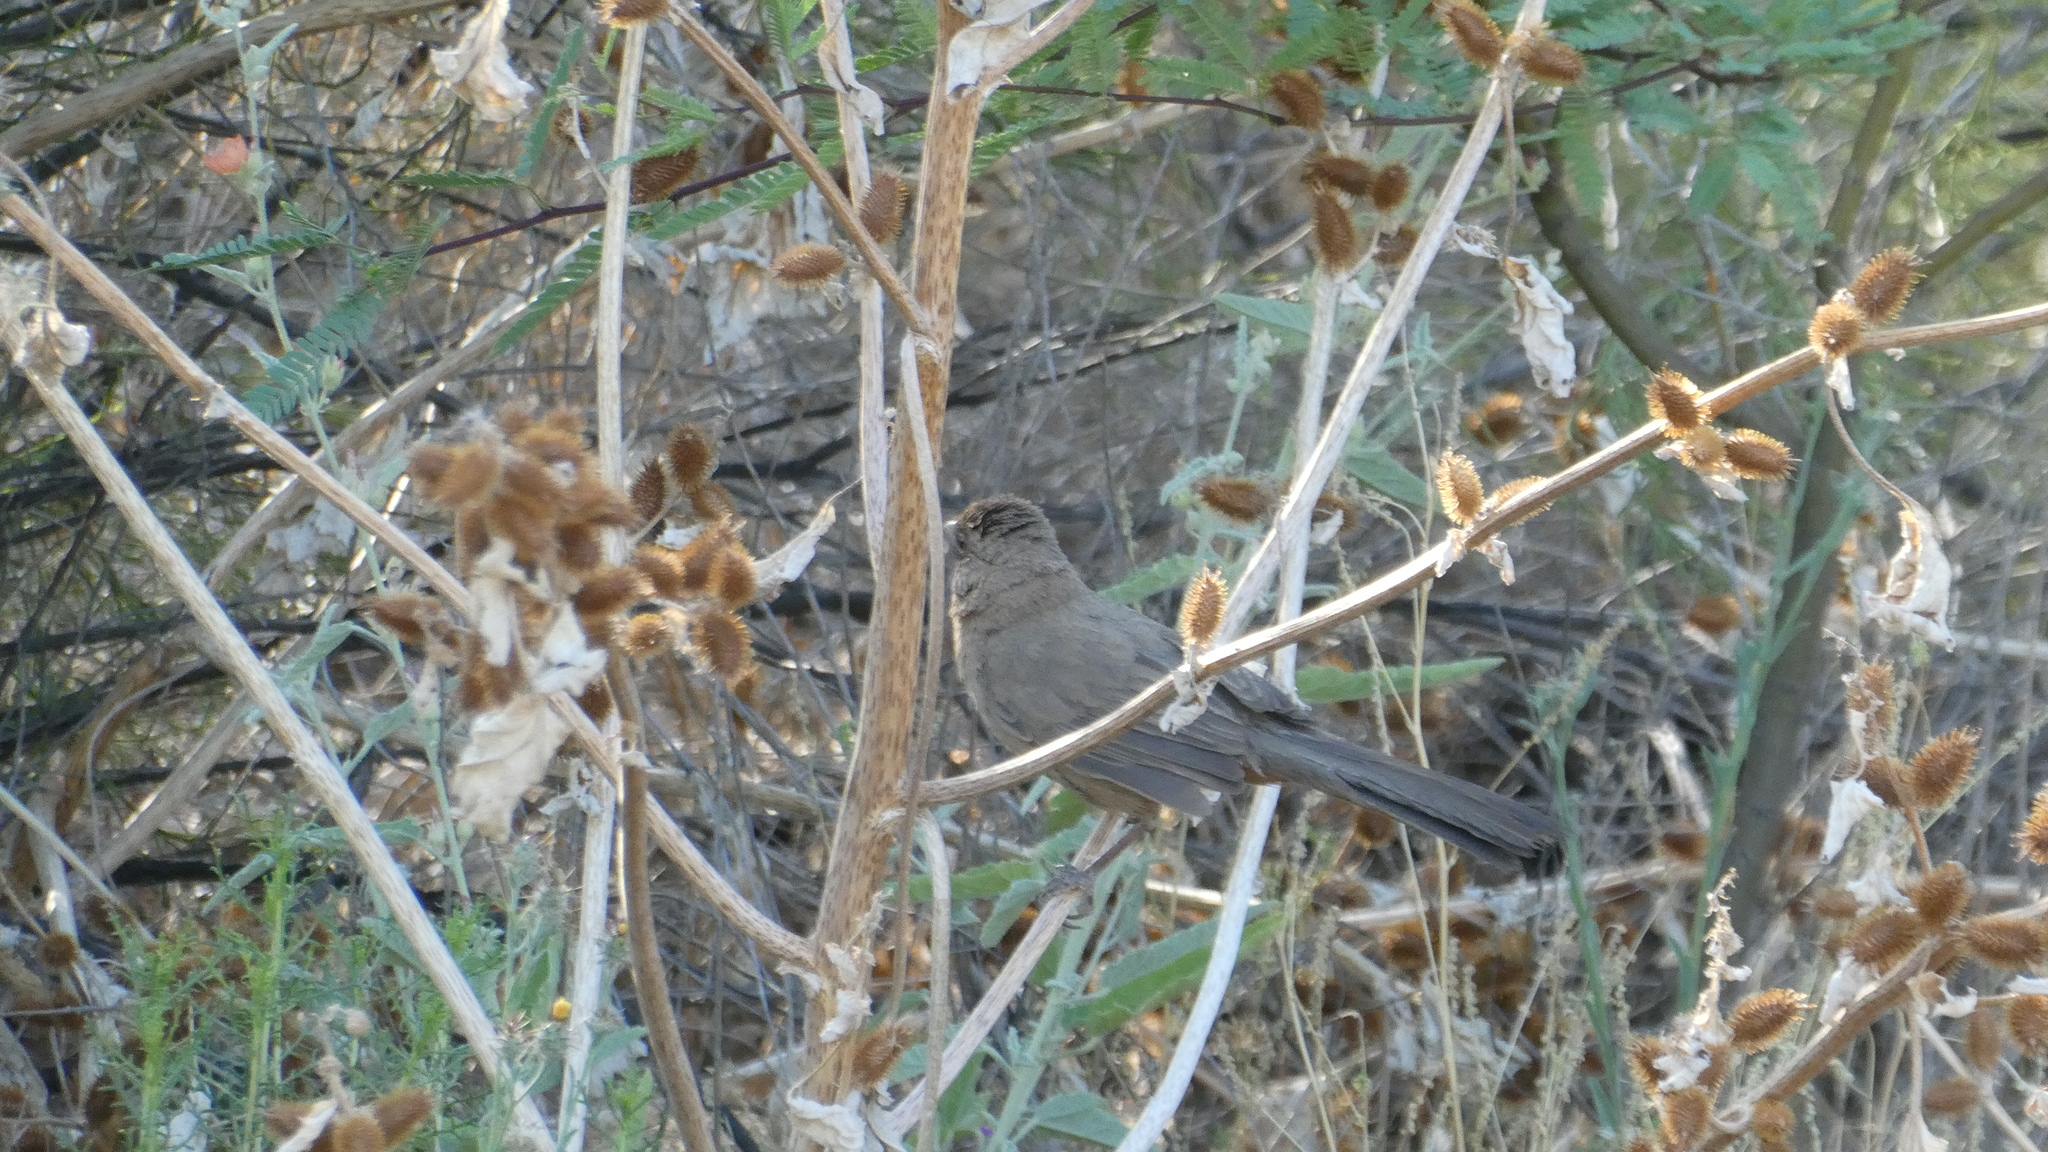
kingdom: Animalia
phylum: Chordata
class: Aves
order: Passeriformes
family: Passerellidae
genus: Melozone
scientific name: Melozone fusca
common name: Canyon towhee
